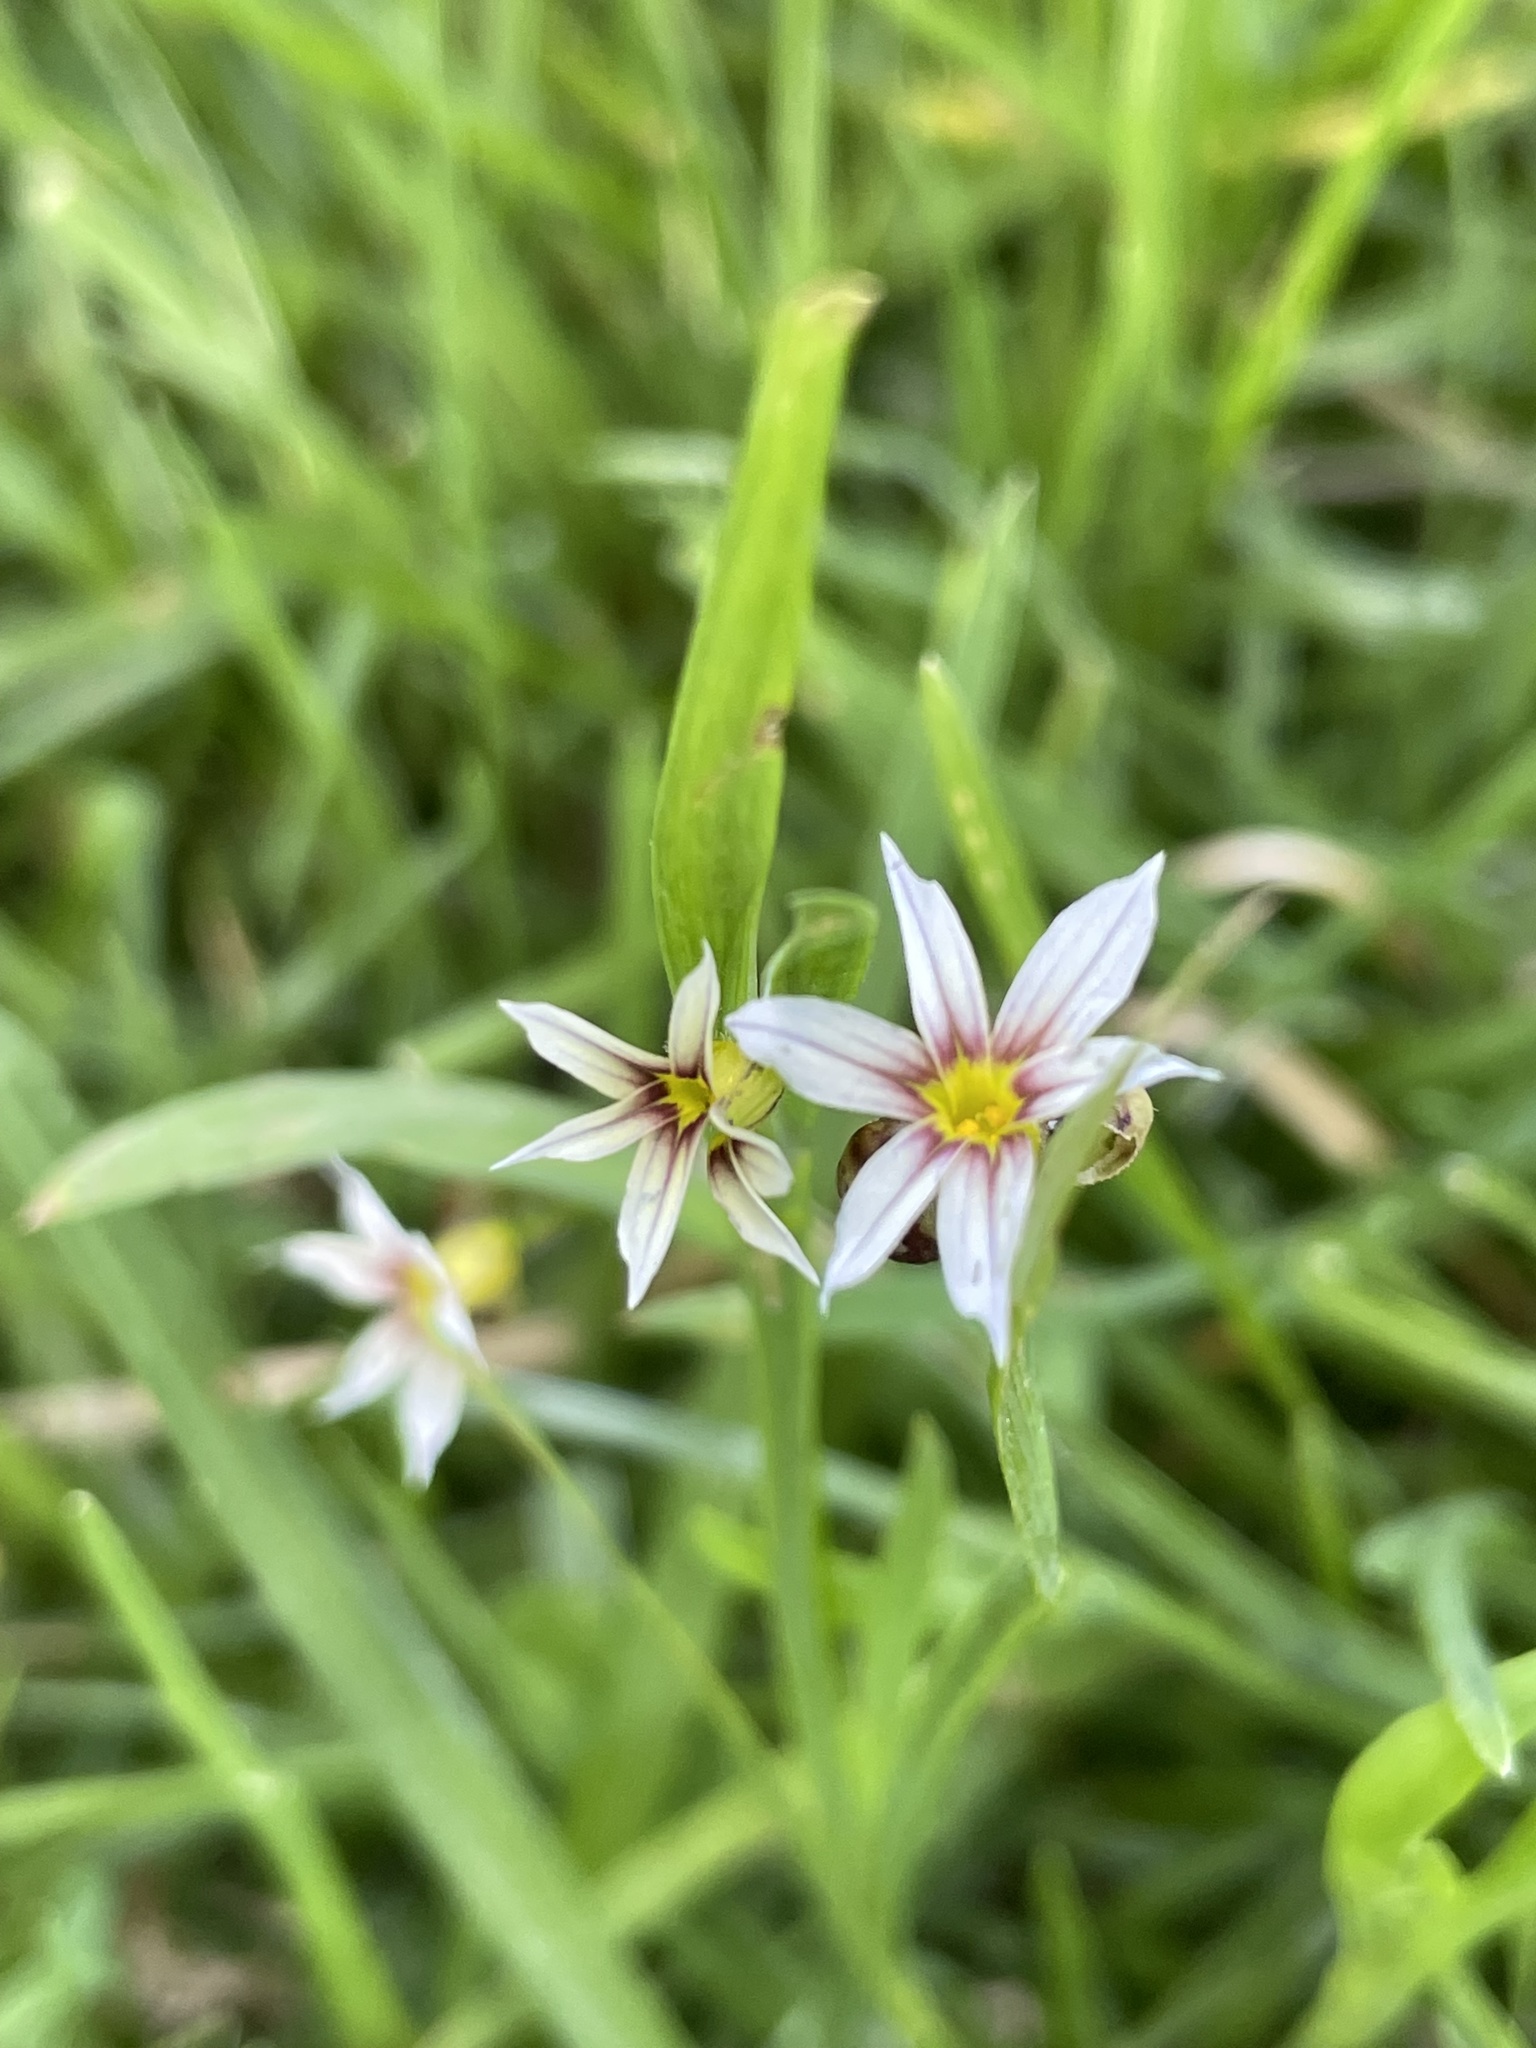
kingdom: Plantae
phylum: Tracheophyta
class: Liliopsida
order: Asparagales
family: Iridaceae
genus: Sisyrinchium
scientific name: Sisyrinchium micranthum
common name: Bermuda pigroot
